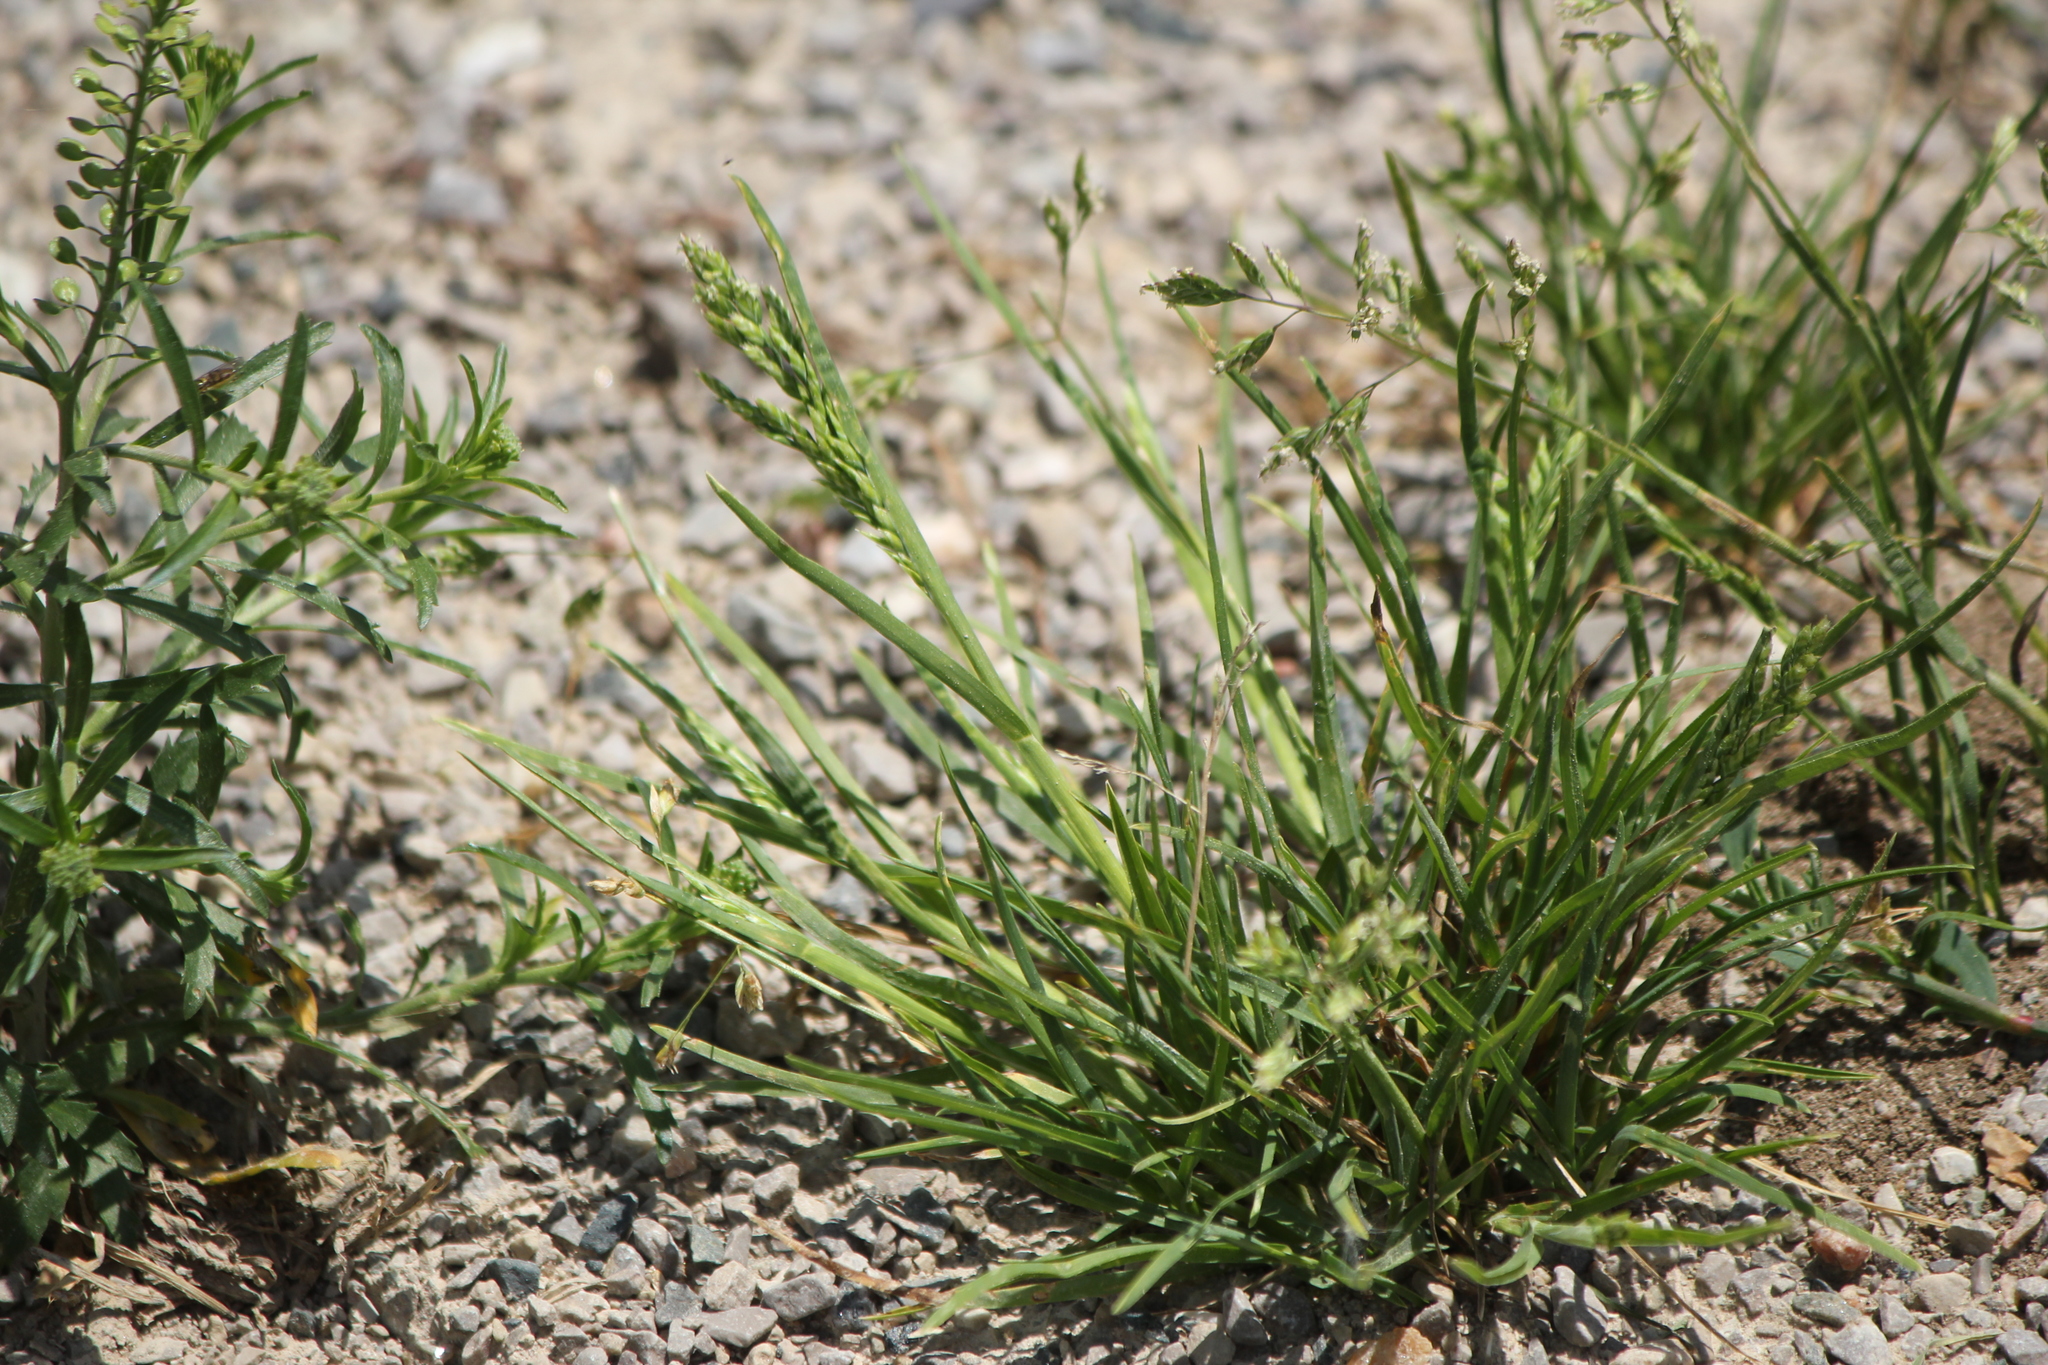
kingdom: Plantae
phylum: Tracheophyta
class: Liliopsida
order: Poales
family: Poaceae
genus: Poa
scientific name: Poa annua
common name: Annual bluegrass
